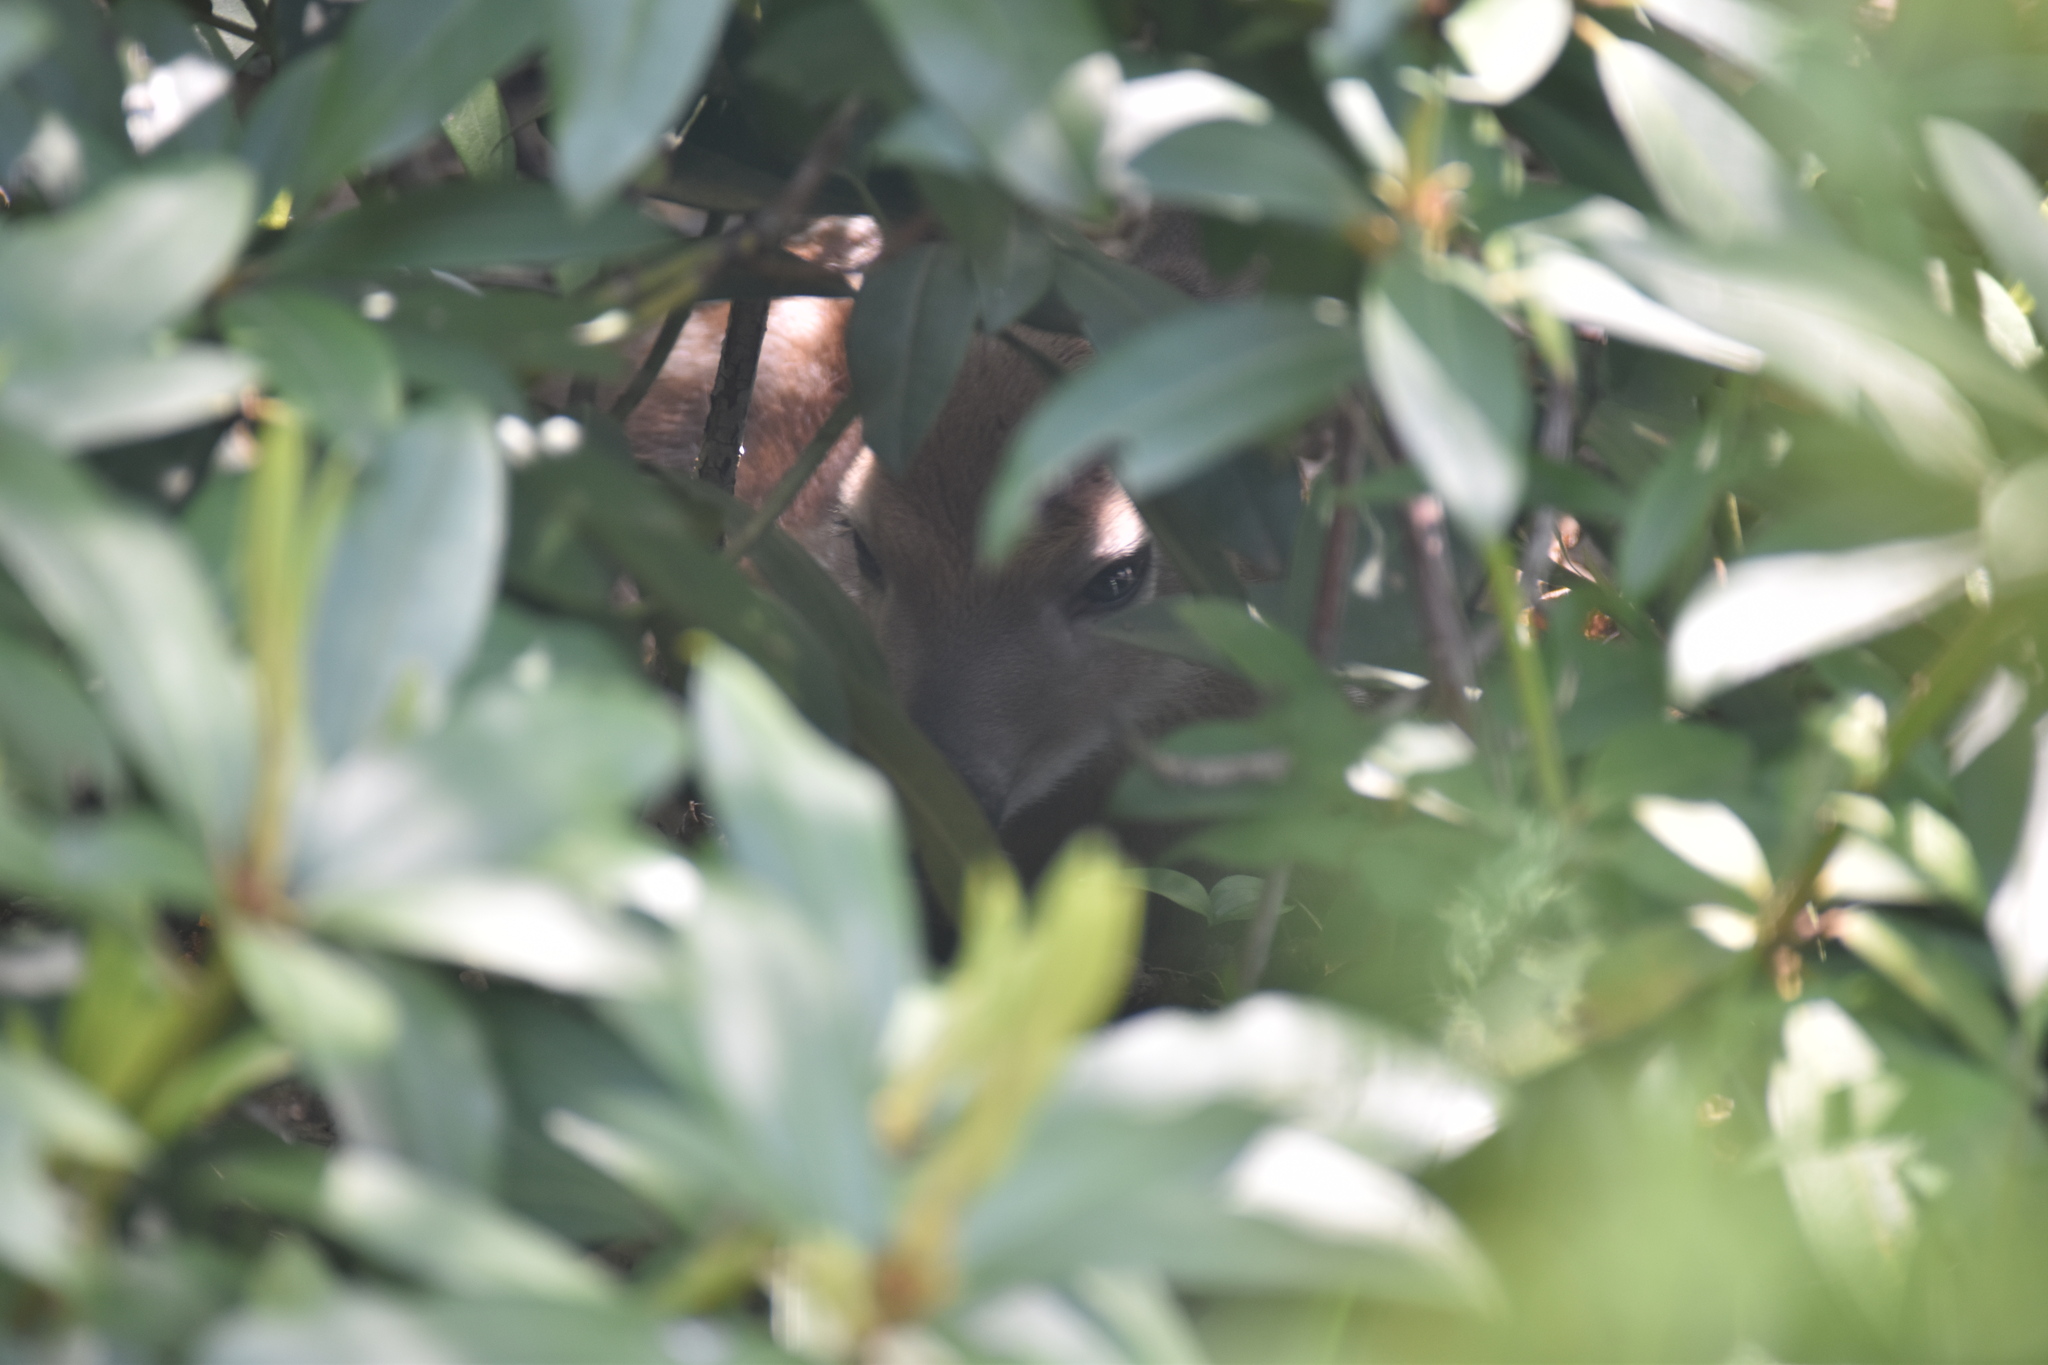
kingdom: Animalia
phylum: Chordata
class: Mammalia
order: Artiodactyla
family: Cervidae
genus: Odocoileus
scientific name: Odocoileus virginianus
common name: White-tailed deer
